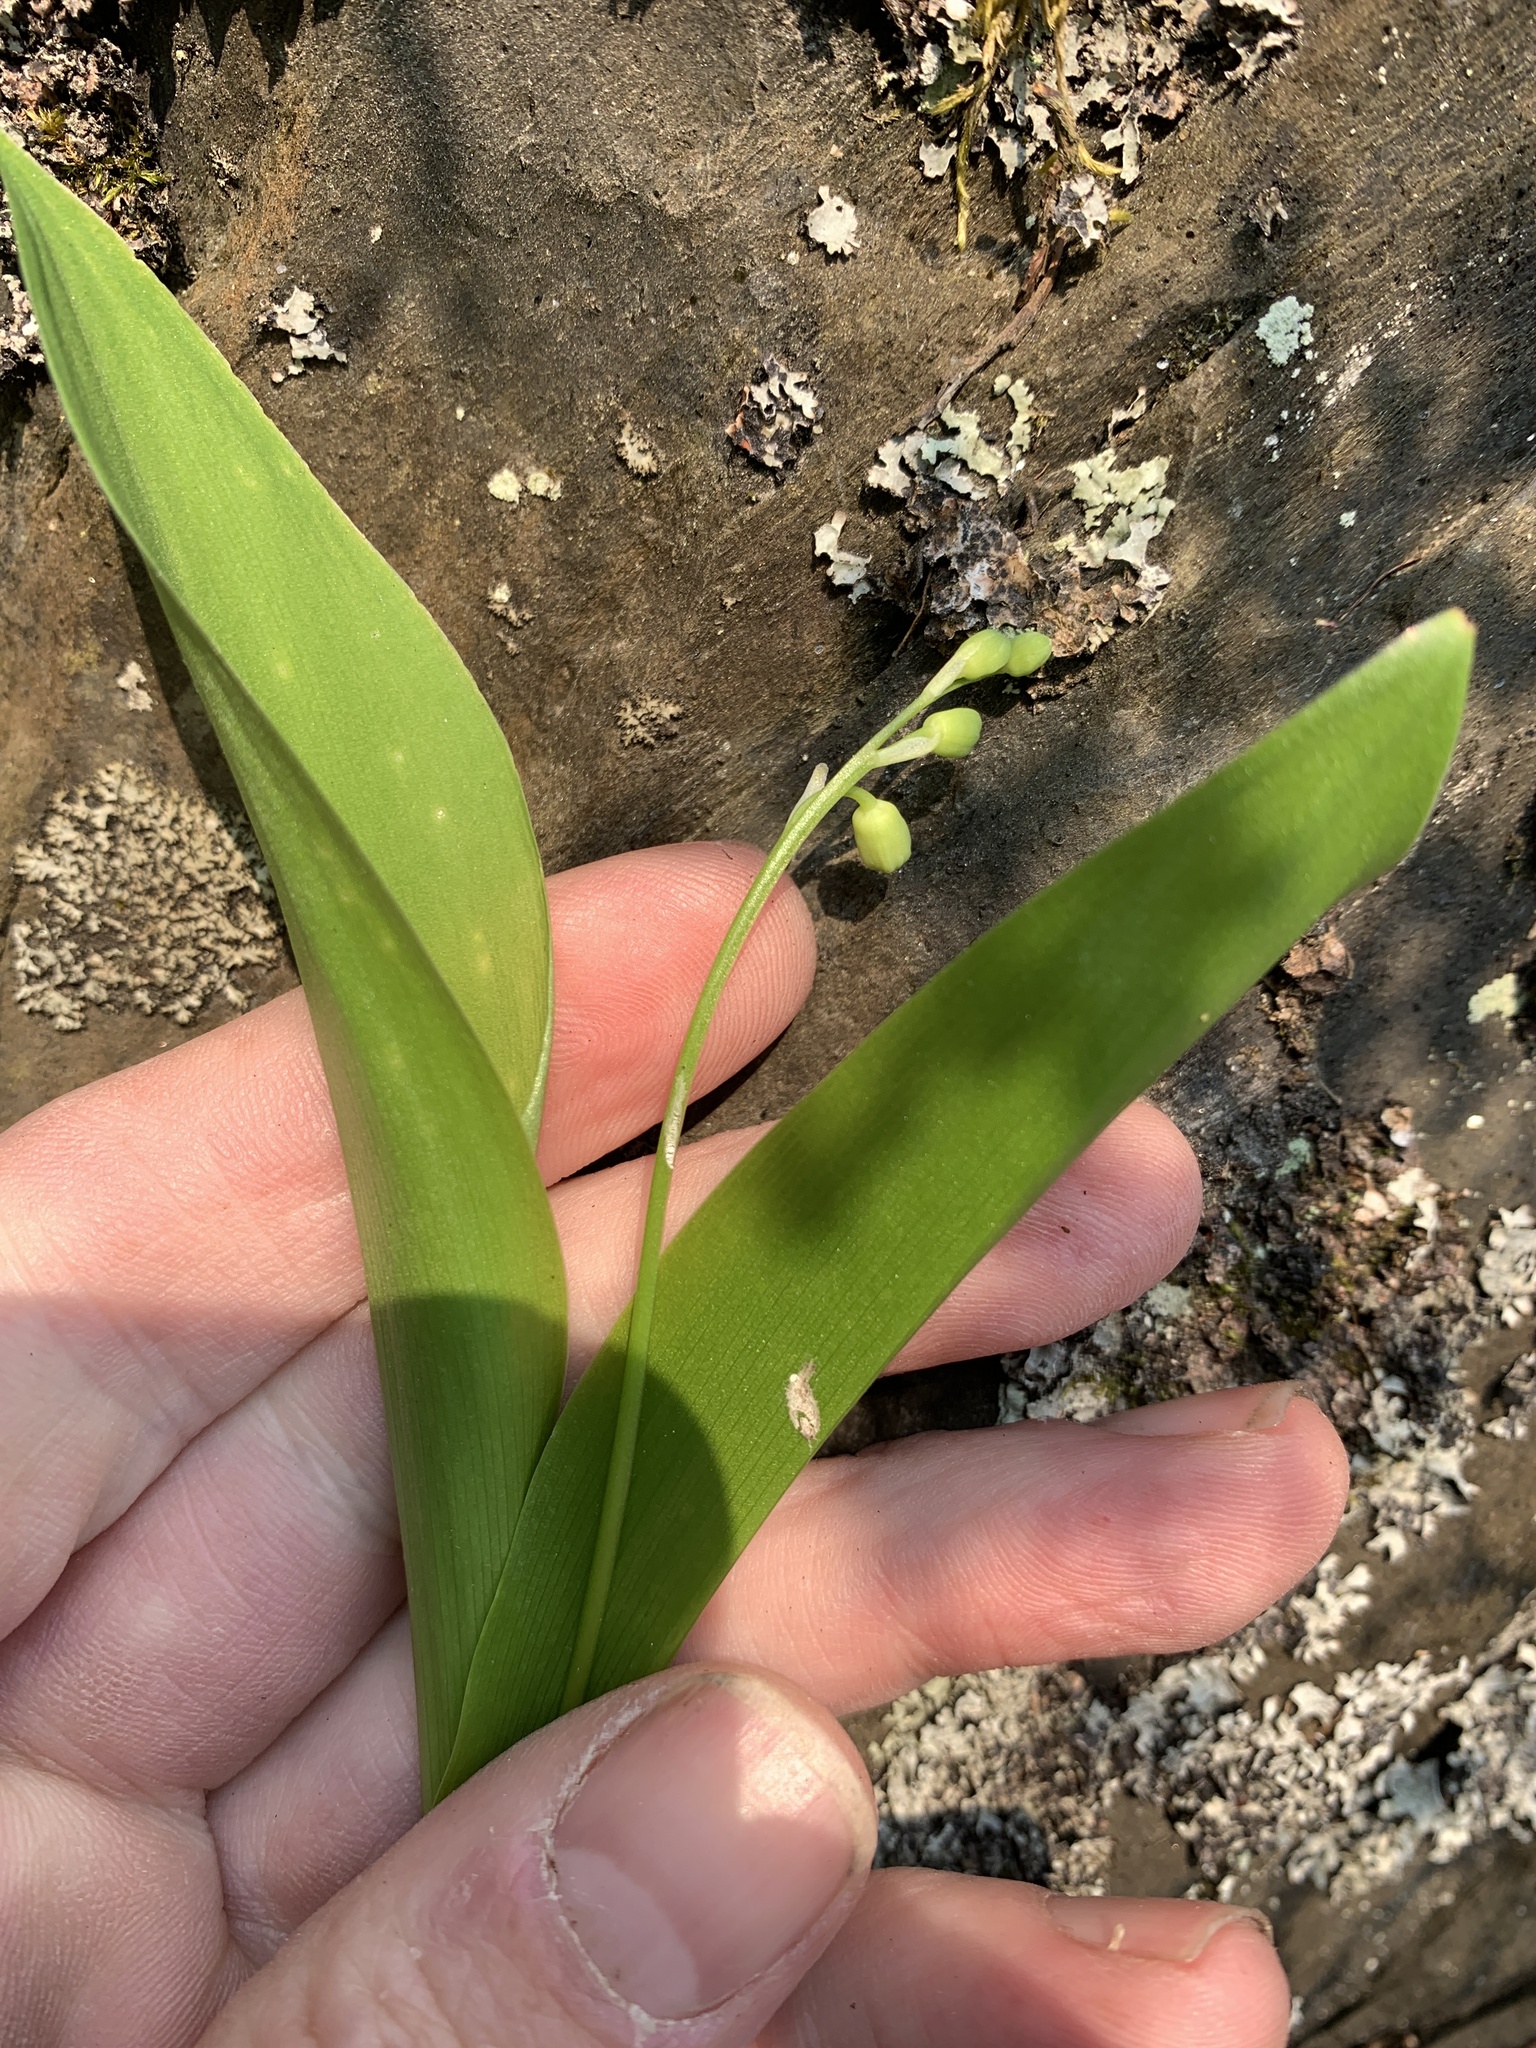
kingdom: Plantae
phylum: Tracheophyta
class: Liliopsida
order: Asparagales
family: Asparagaceae
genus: Convallaria
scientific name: Convallaria majalis
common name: Lily-of-the-valley
